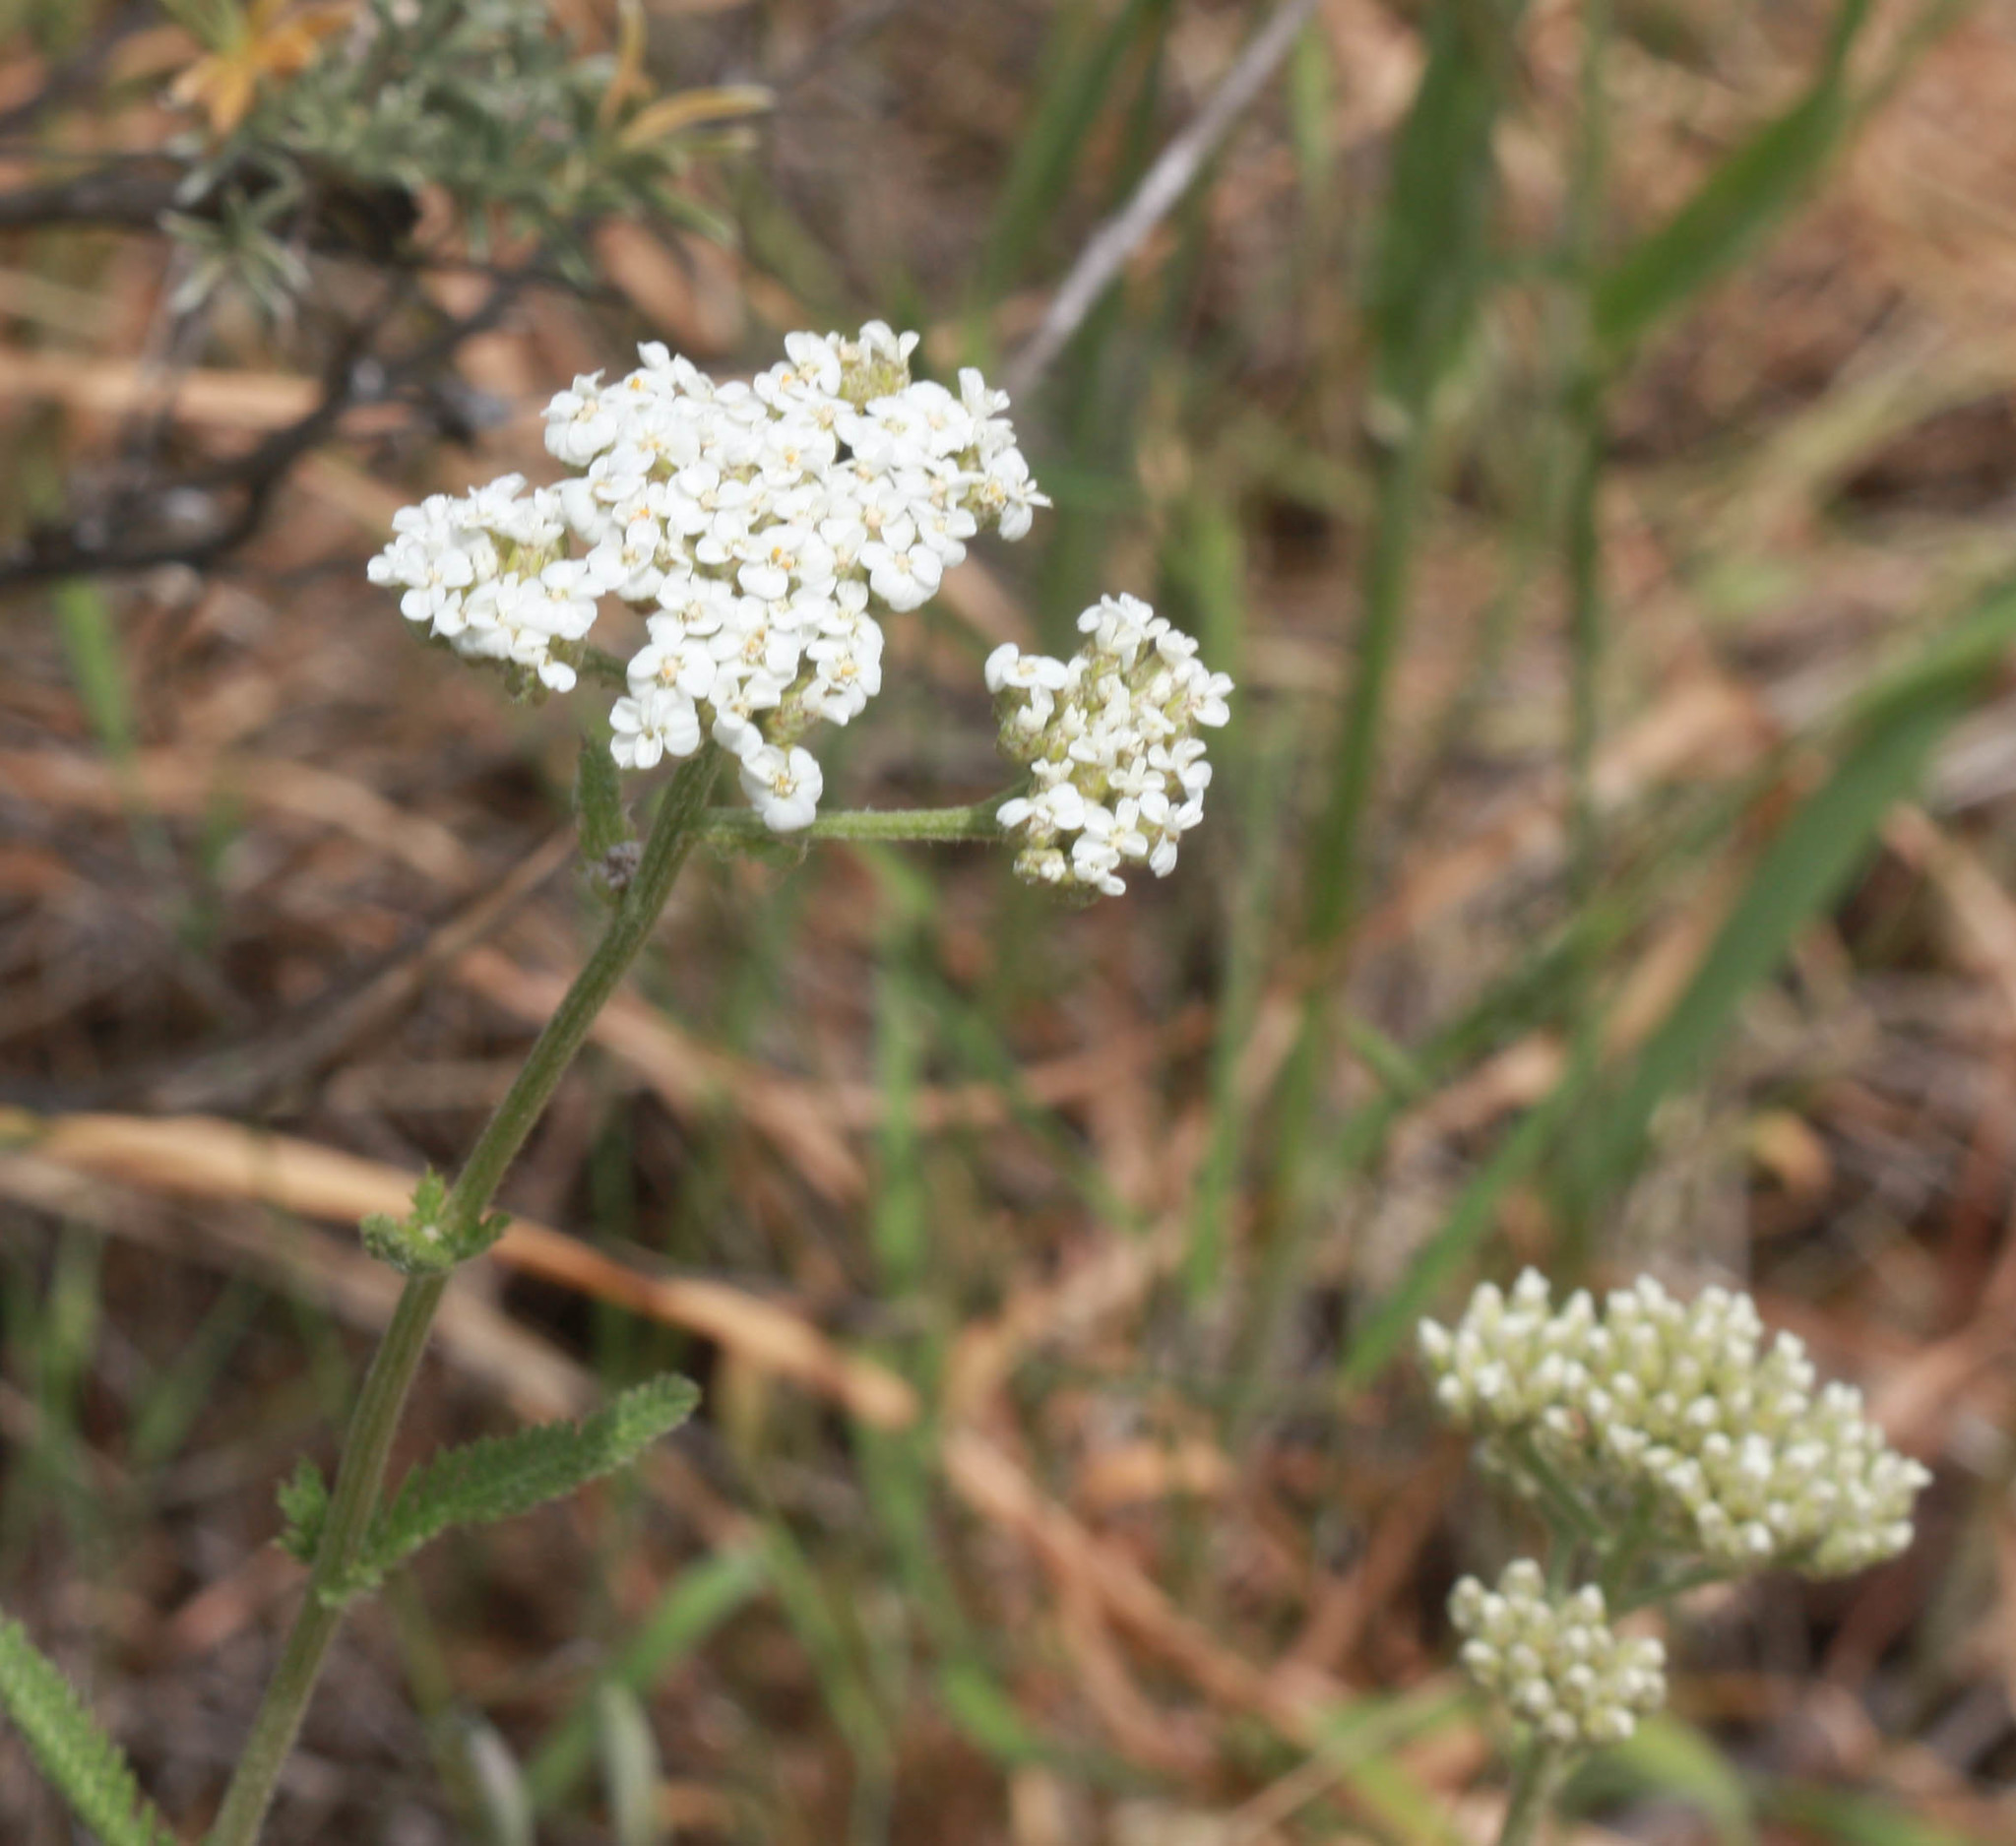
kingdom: Plantae
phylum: Tracheophyta
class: Magnoliopsida
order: Asterales
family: Asteraceae
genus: Achillea
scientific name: Achillea millefolium
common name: Yarrow
